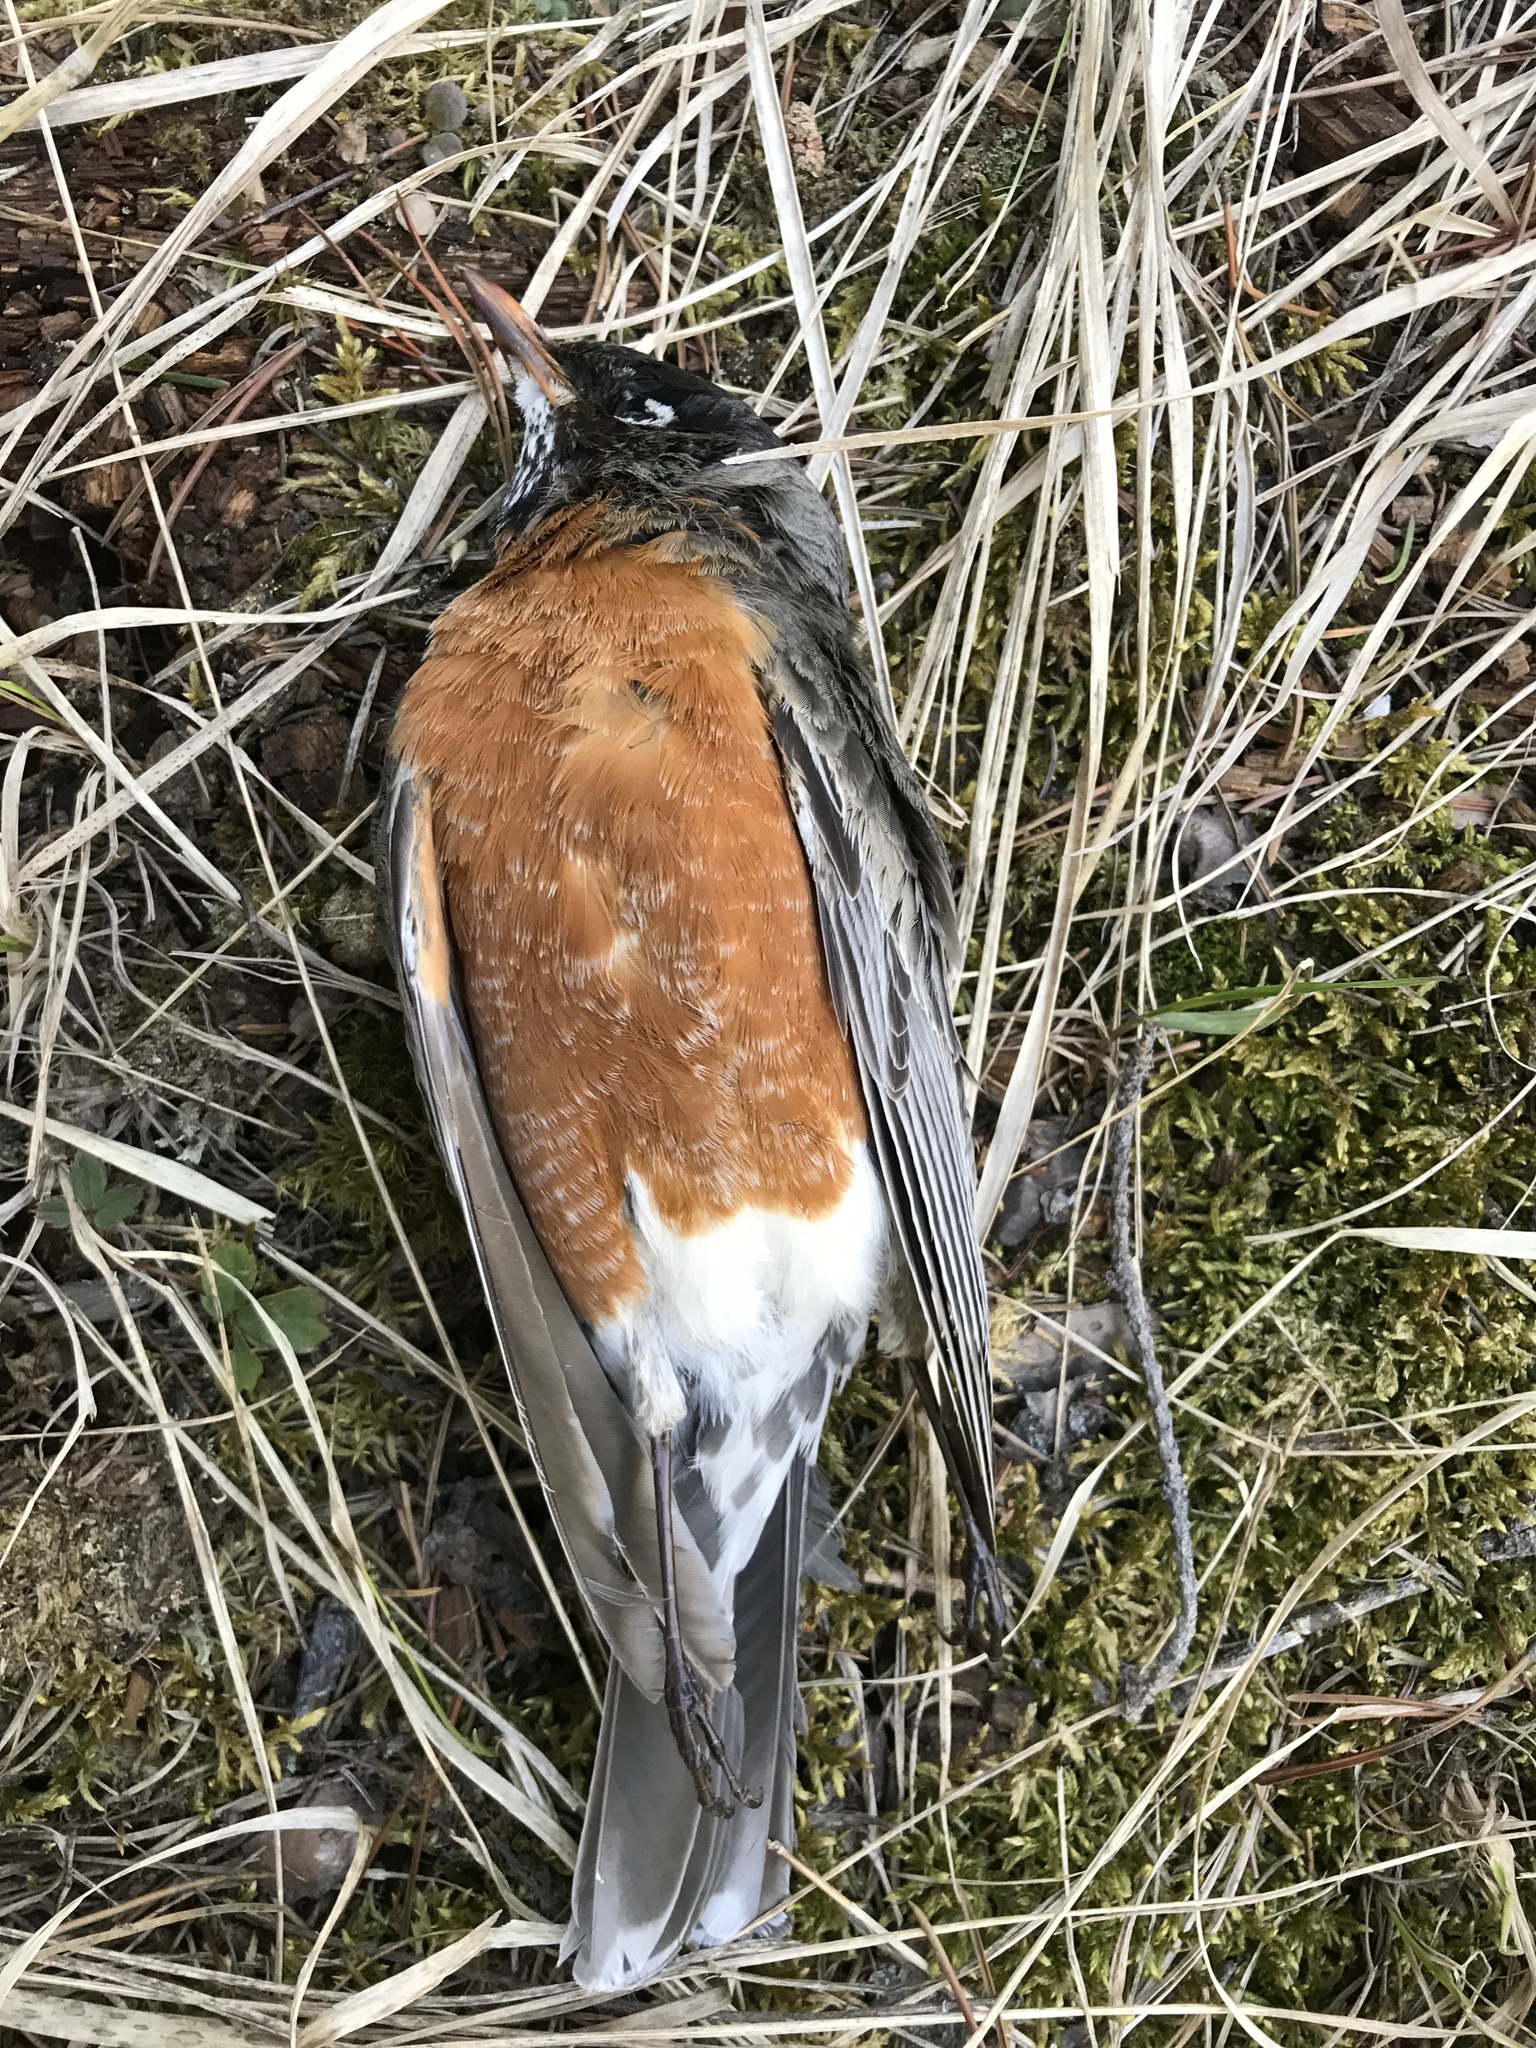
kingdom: Animalia
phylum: Chordata
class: Aves
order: Passeriformes
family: Turdidae
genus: Turdus
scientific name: Turdus migratorius
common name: American robin
